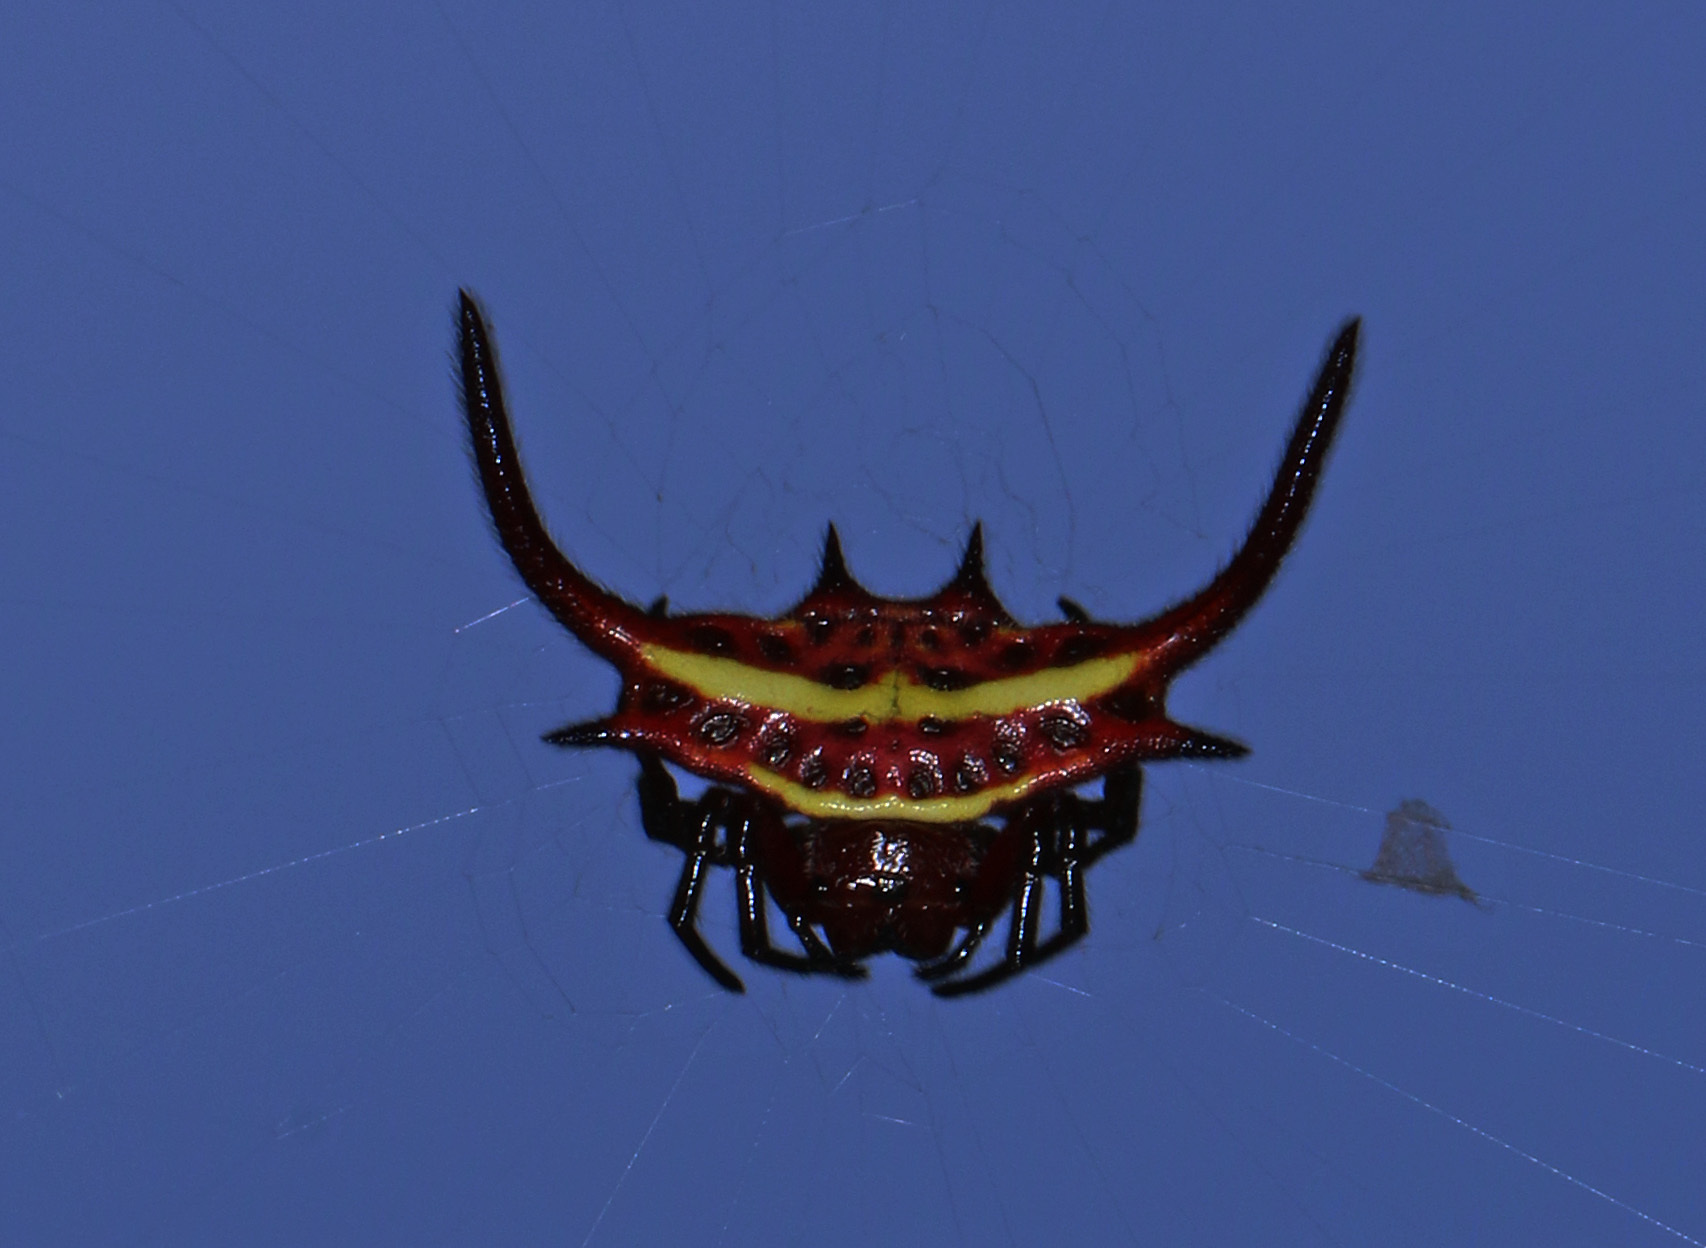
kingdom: Animalia
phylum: Arthropoda
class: Arachnida
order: Araneae
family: Araneidae
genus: Gasteracantha
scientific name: Gasteracantha falcicornis
